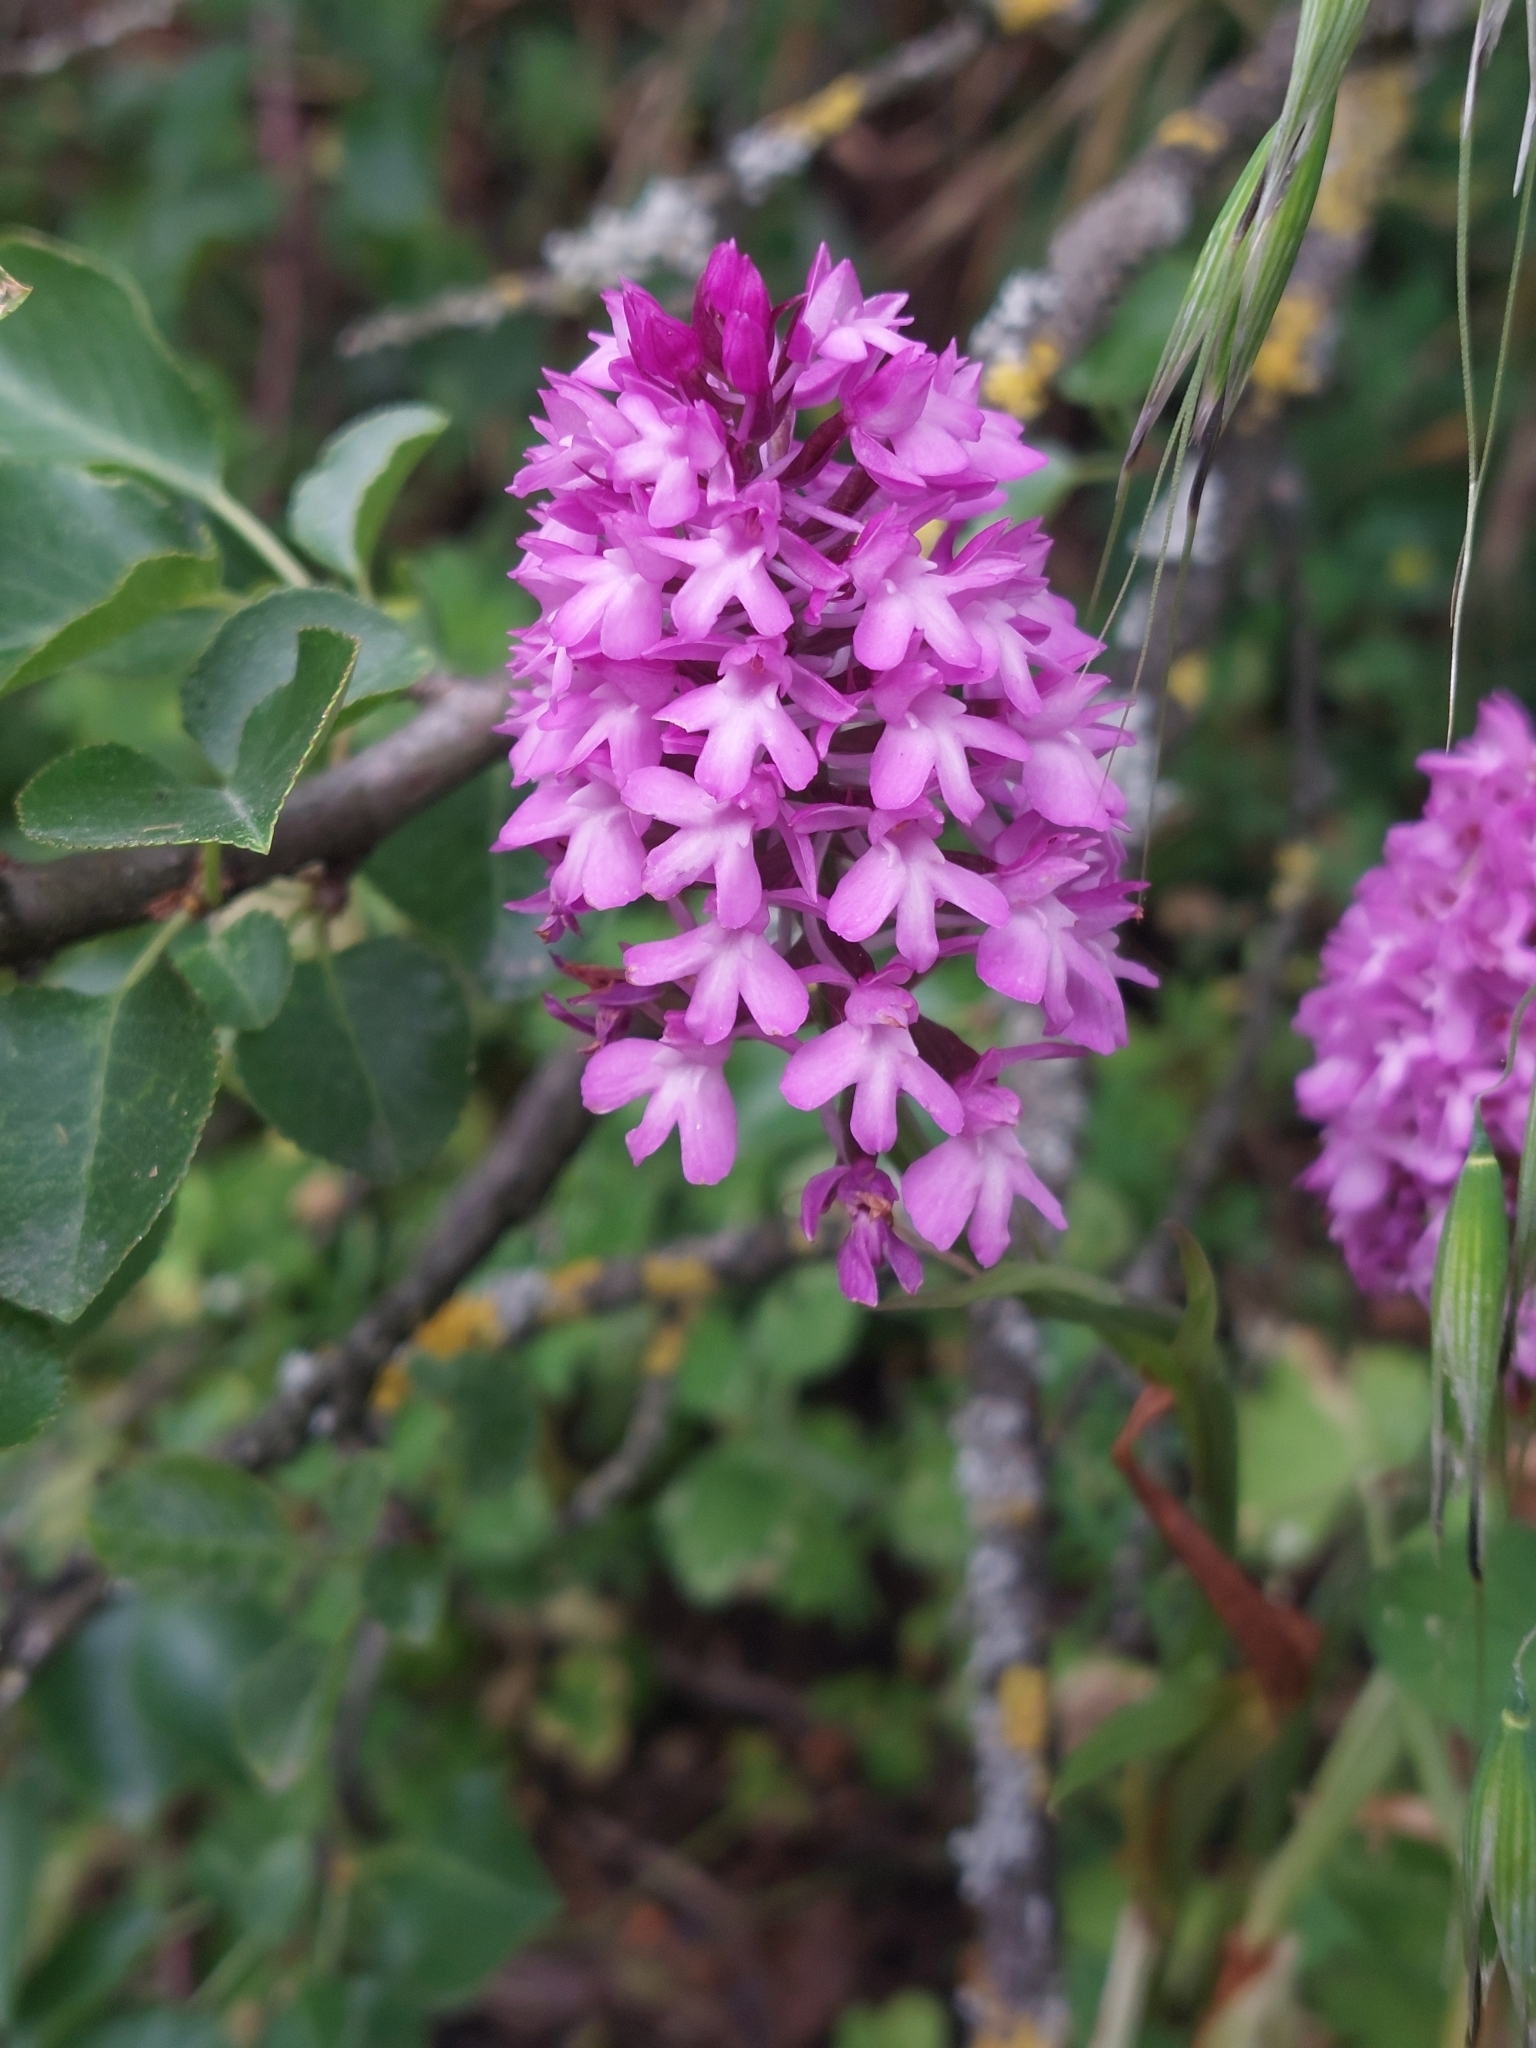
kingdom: Plantae
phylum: Tracheophyta
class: Liliopsida
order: Asparagales
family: Orchidaceae
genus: Anacamptis
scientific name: Anacamptis pyramidalis
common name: Pyramidal orchid
